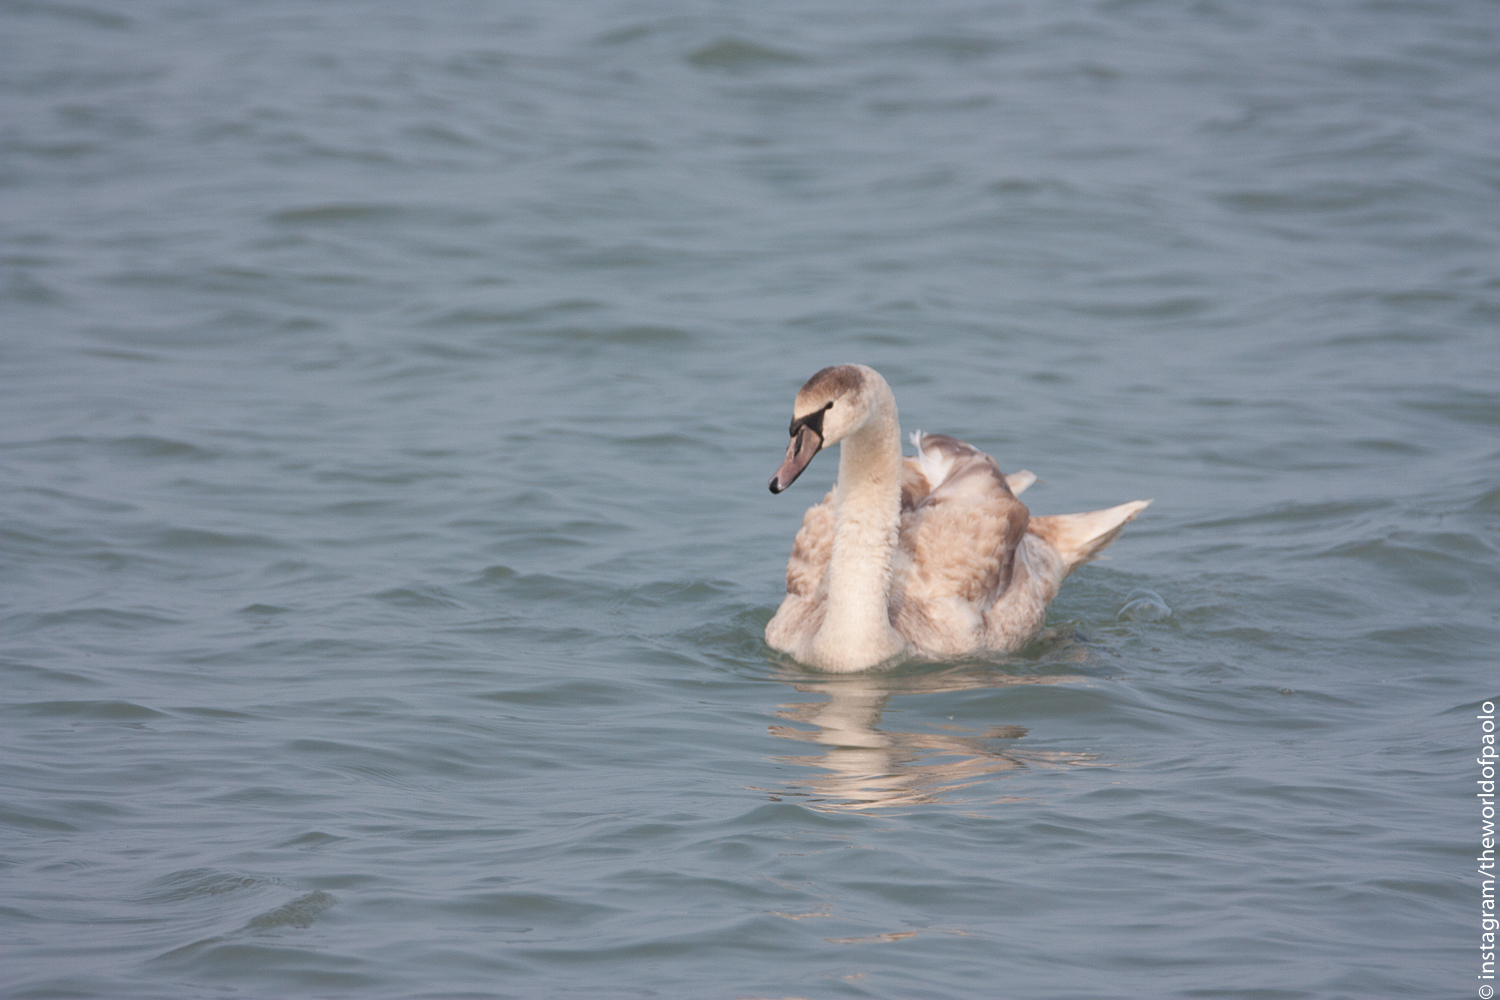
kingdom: Animalia
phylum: Chordata
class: Aves
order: Anseriformes
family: Anatidae
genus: Cygnus
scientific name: Cygnus olor
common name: Mute swan
